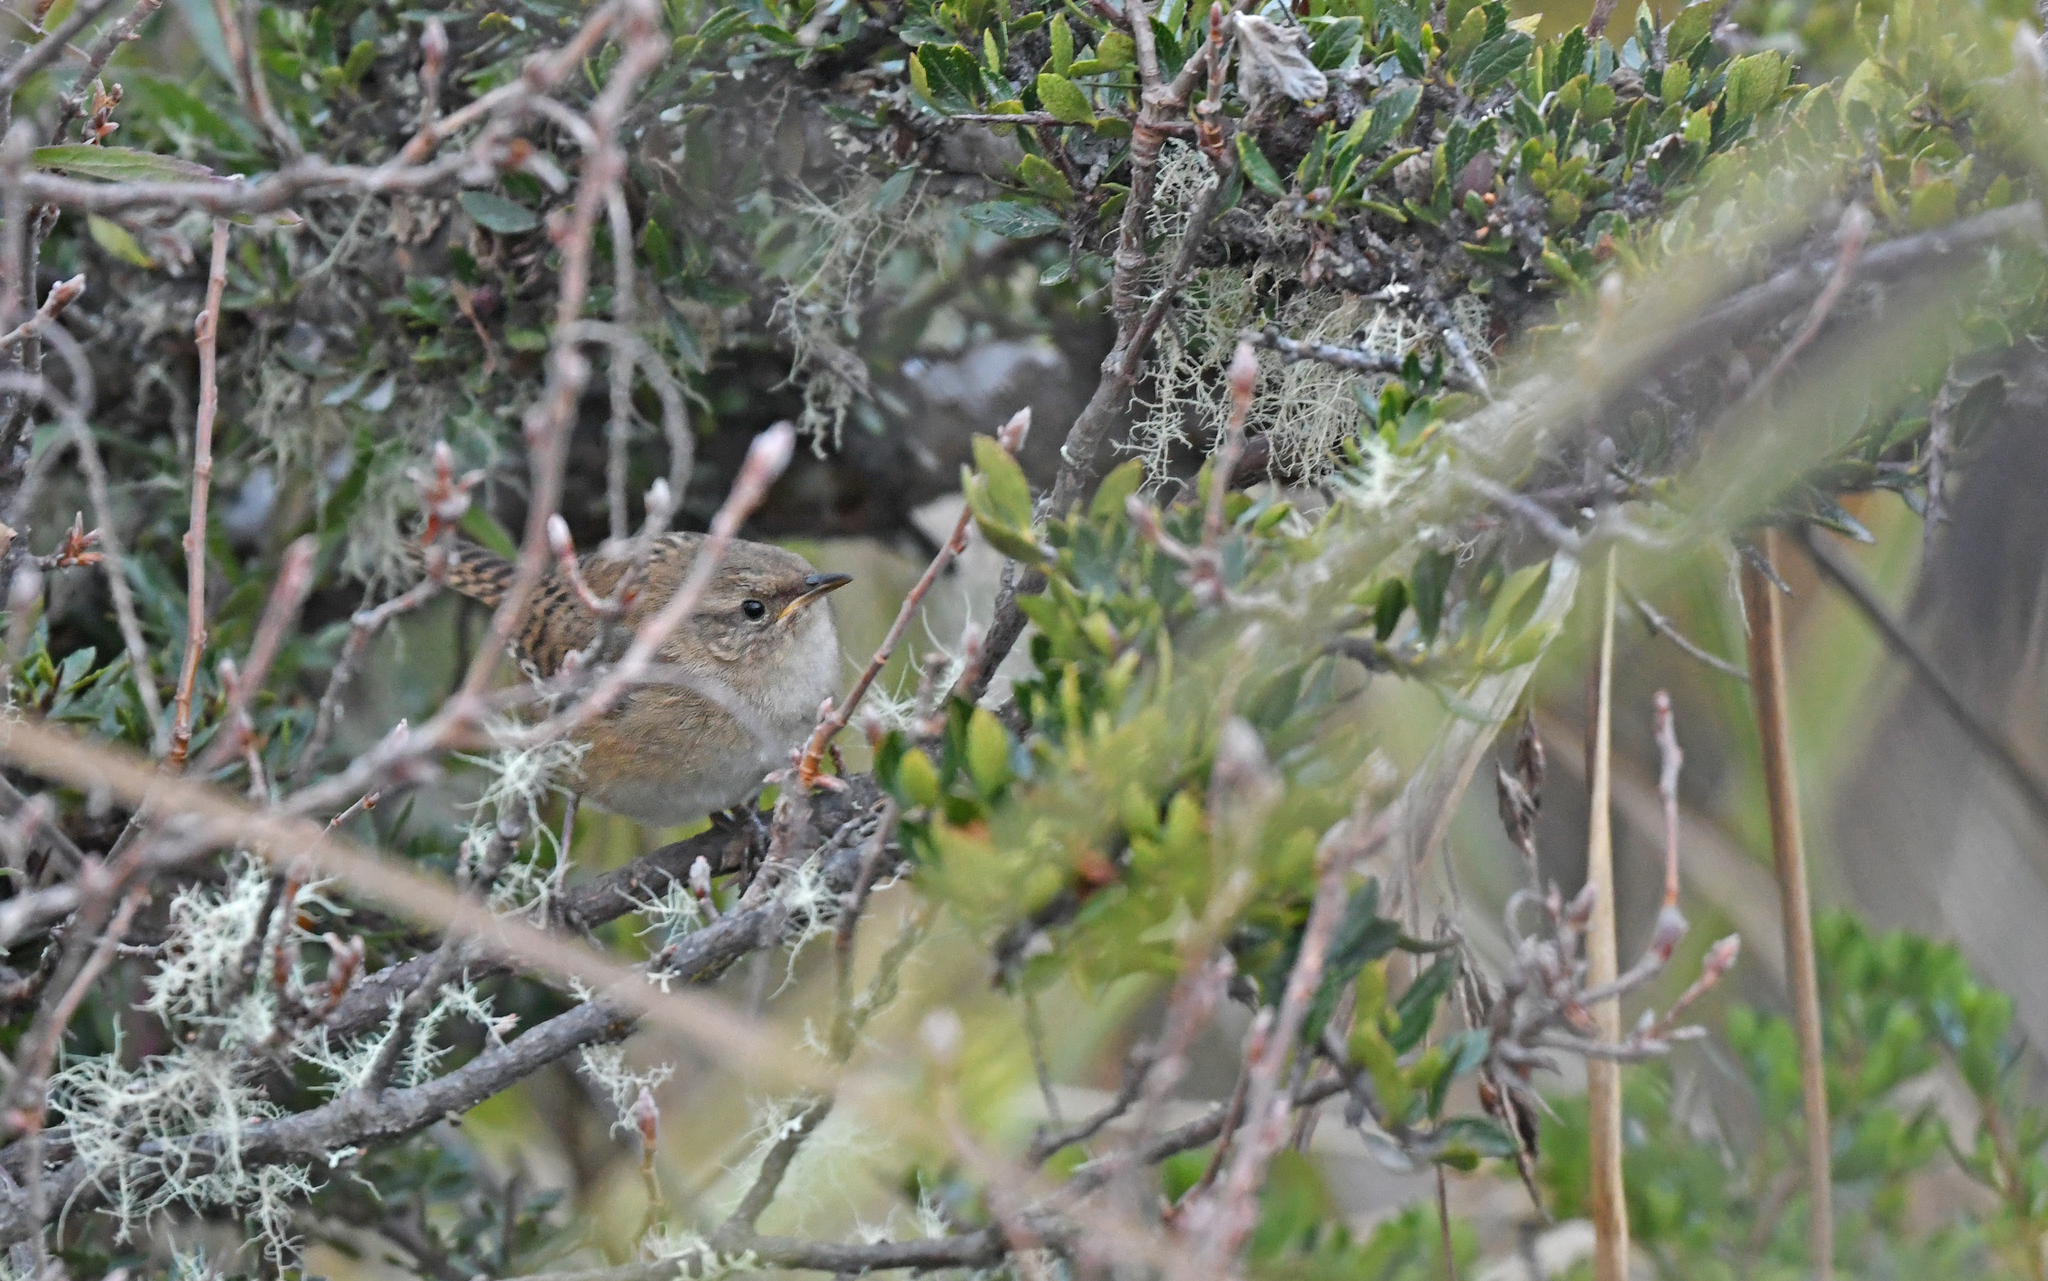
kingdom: Animalia
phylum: Chordata
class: Aves
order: Passeriformes
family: Troglodytidae
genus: Cistothorus
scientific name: Cistothorus platensis
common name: Sedge wren
